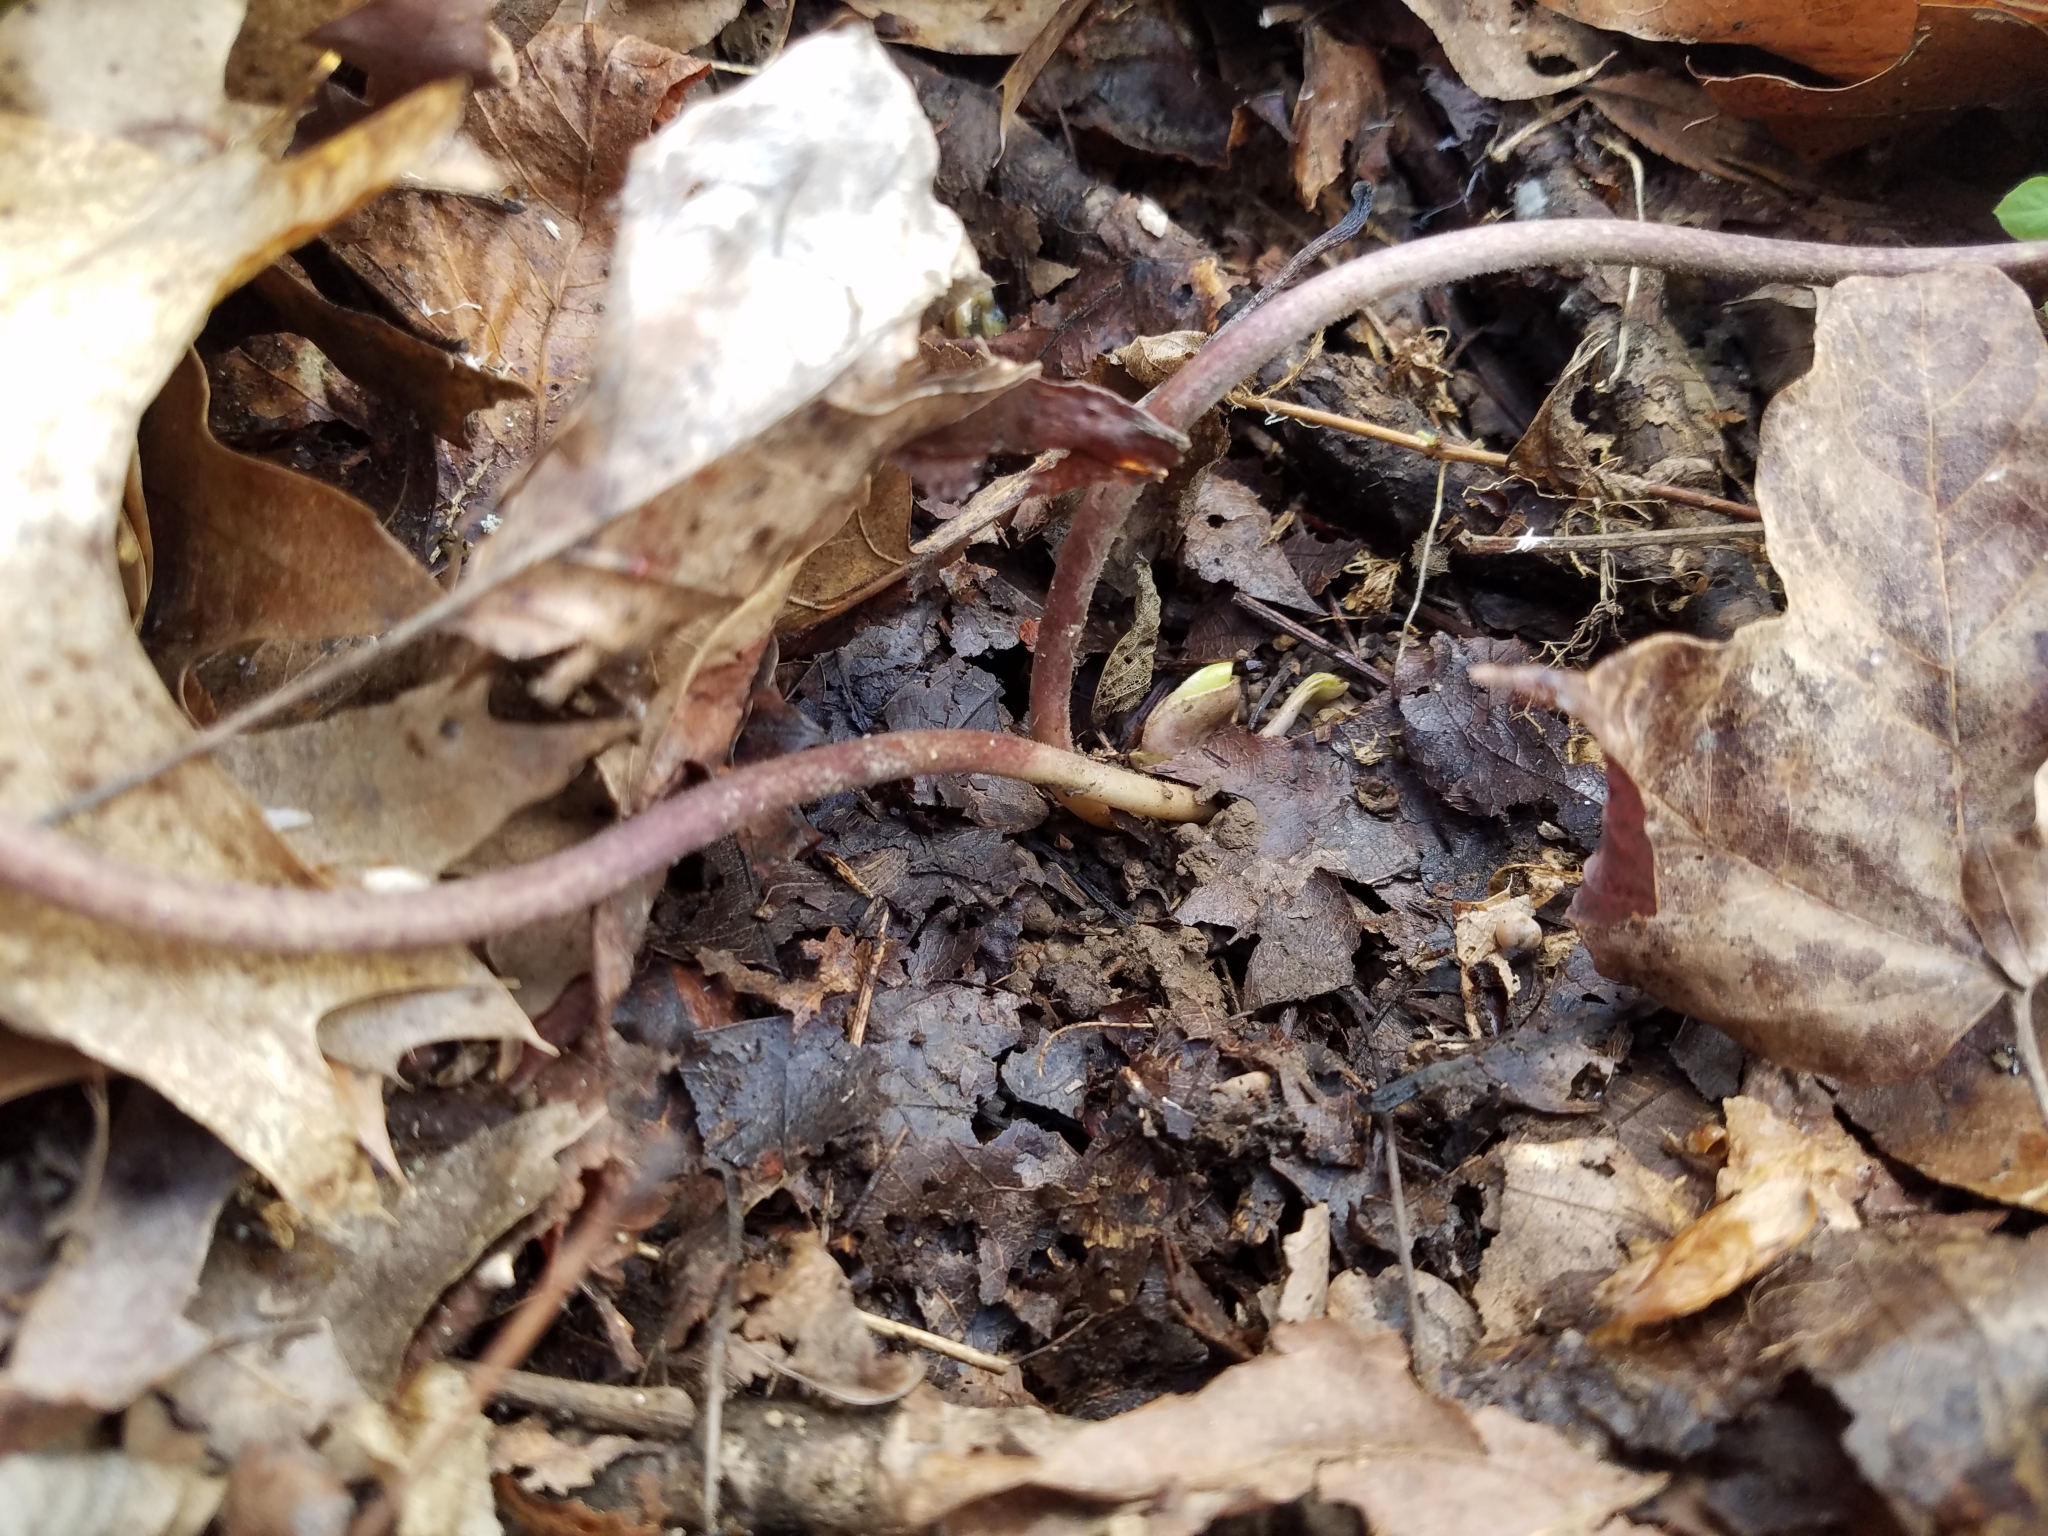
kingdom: Plantae
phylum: Tracheophyta
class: Magnoliopsida
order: Piperales
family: Aristolochiaceae
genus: Hexastylis
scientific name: Hexastylis arifolia
